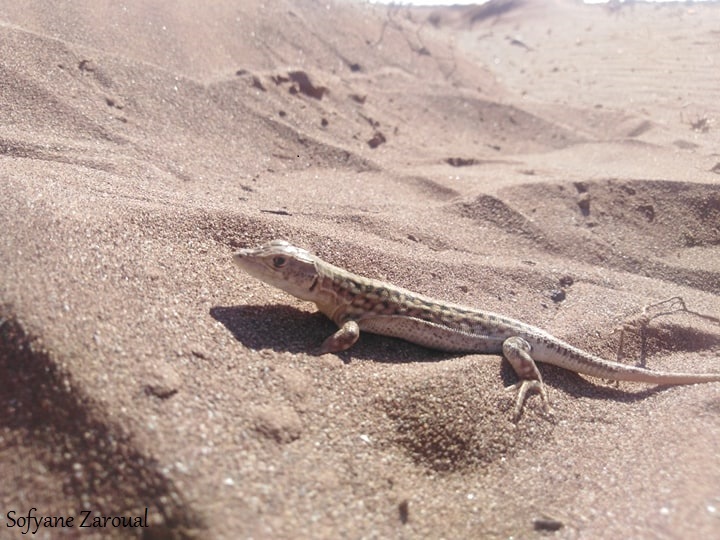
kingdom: Animalia
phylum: Chordata
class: Squamata
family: Lacertidae
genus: Acanthodactylus
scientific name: Acanthodactylus margaritae
